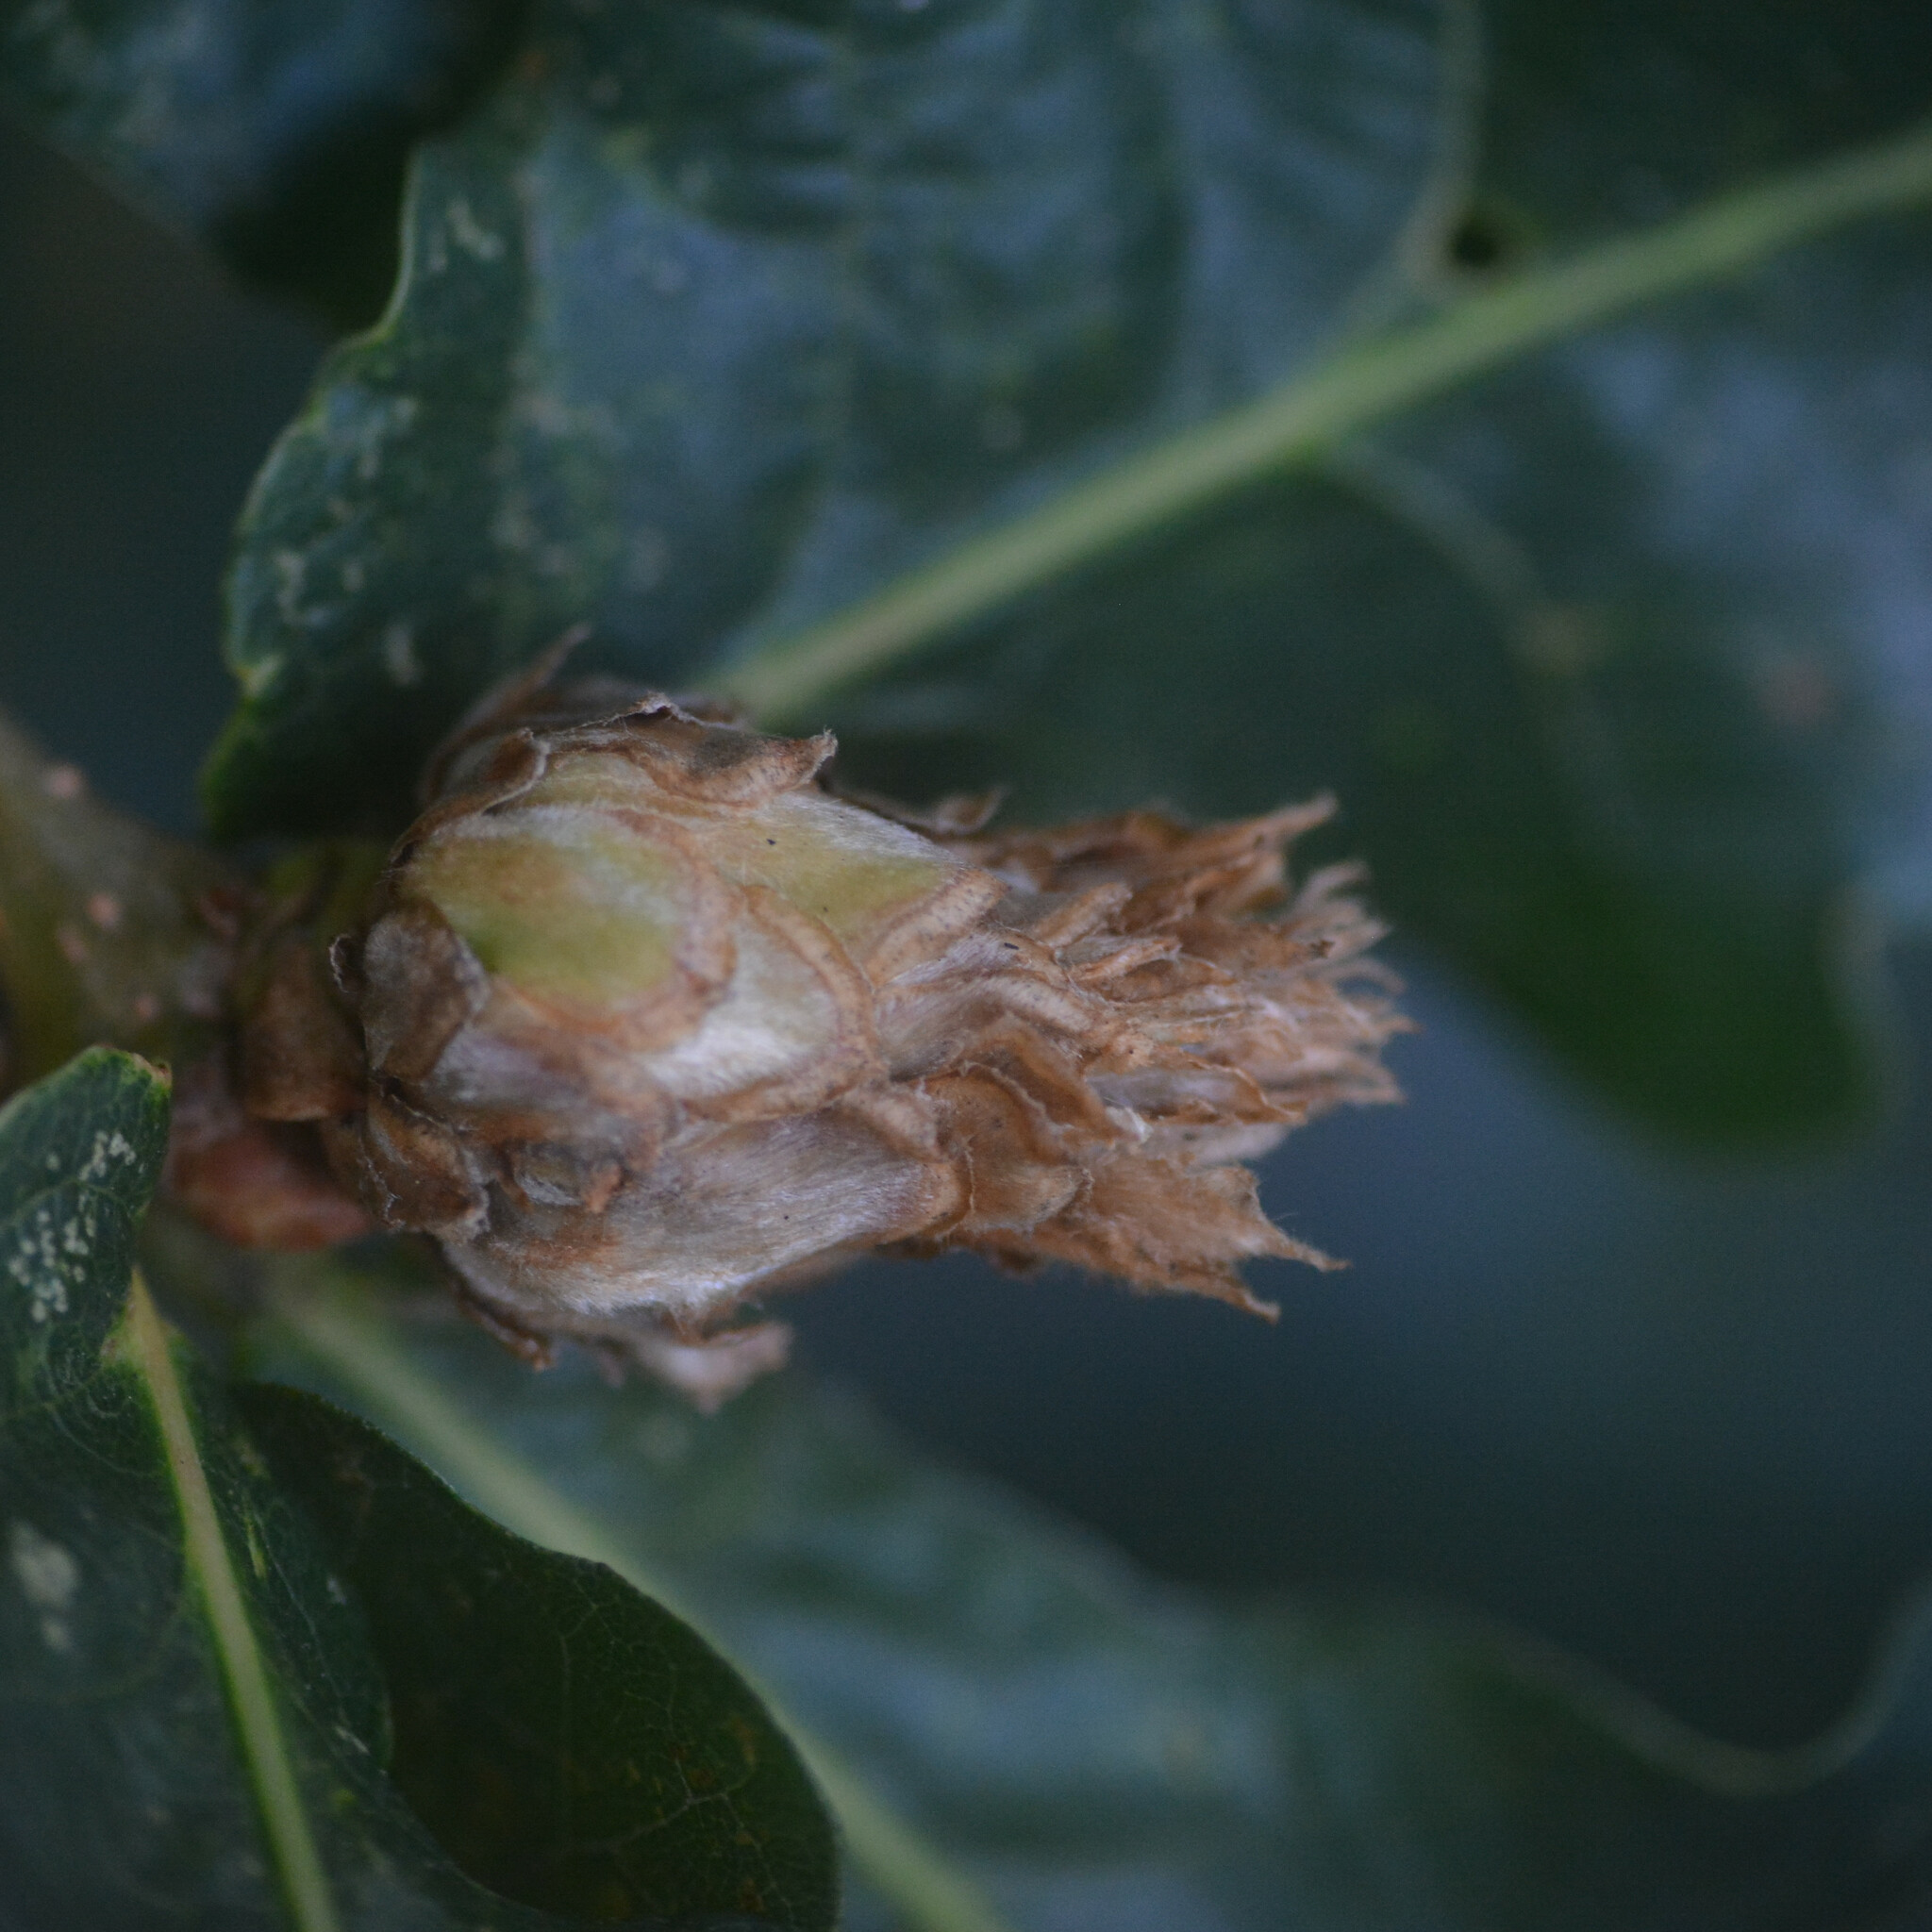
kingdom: Animalia
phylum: Arthropoda
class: Insecta
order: Hymenoptera
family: Cynipidae
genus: Andricus
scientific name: Andricus foecundatrix
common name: Artichoke gall
